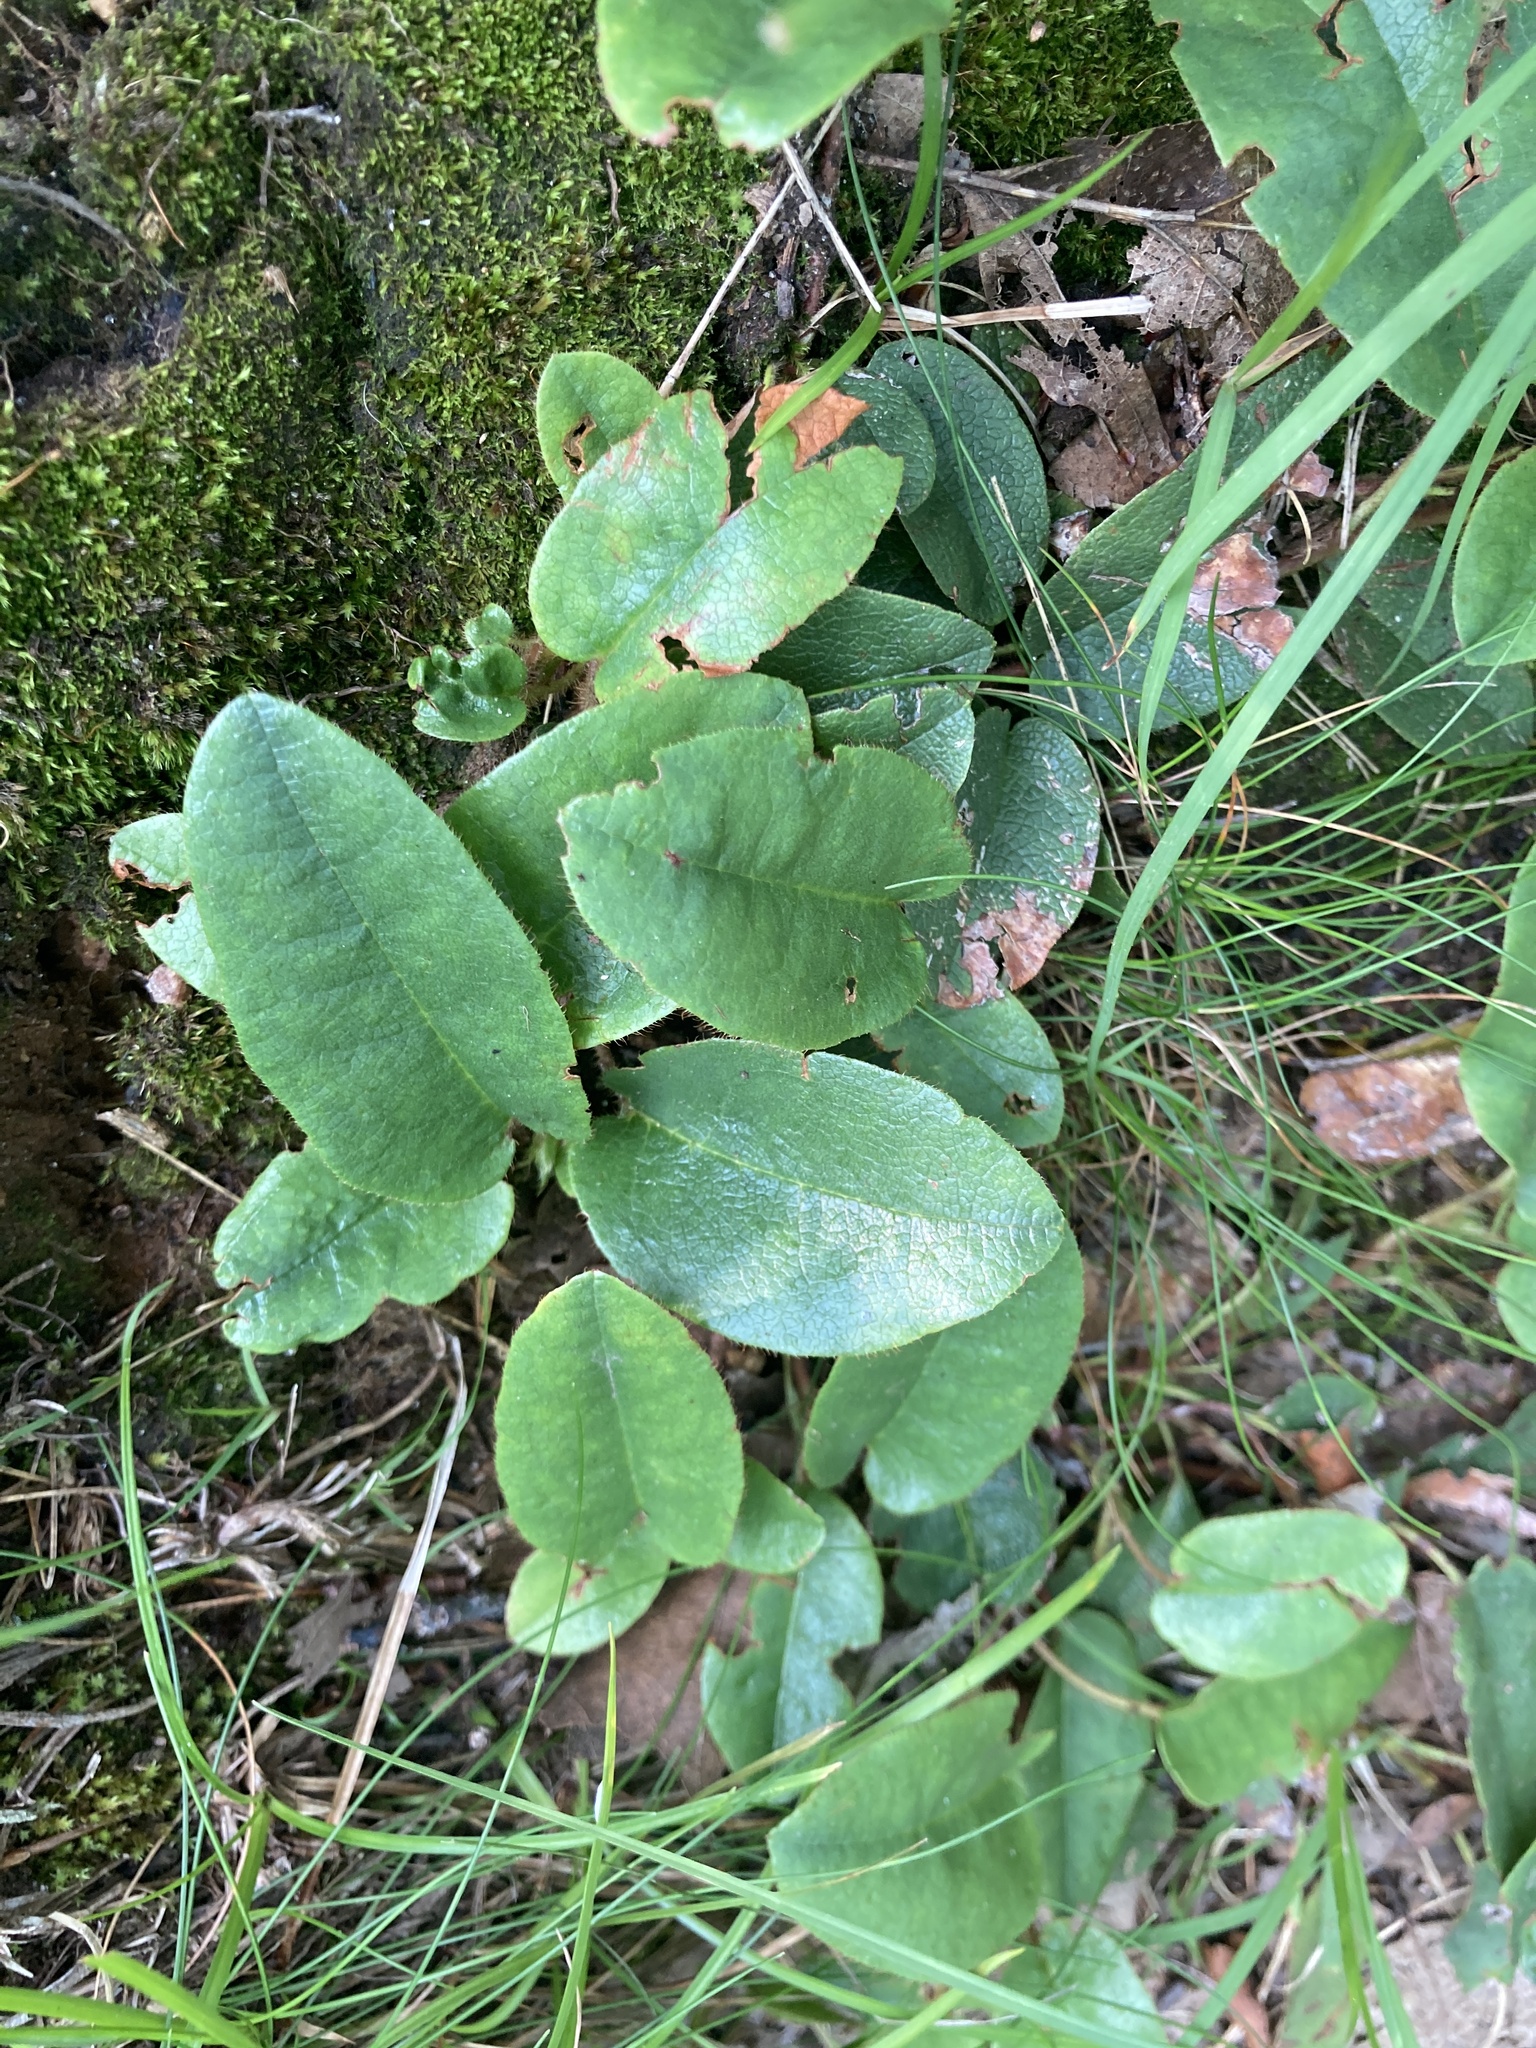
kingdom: Plantae
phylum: Tracheophyta
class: Magnoliopsida
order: Ericales
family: Ericaceae
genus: Epigaea
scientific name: Epigaea repens
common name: Gravelroot
